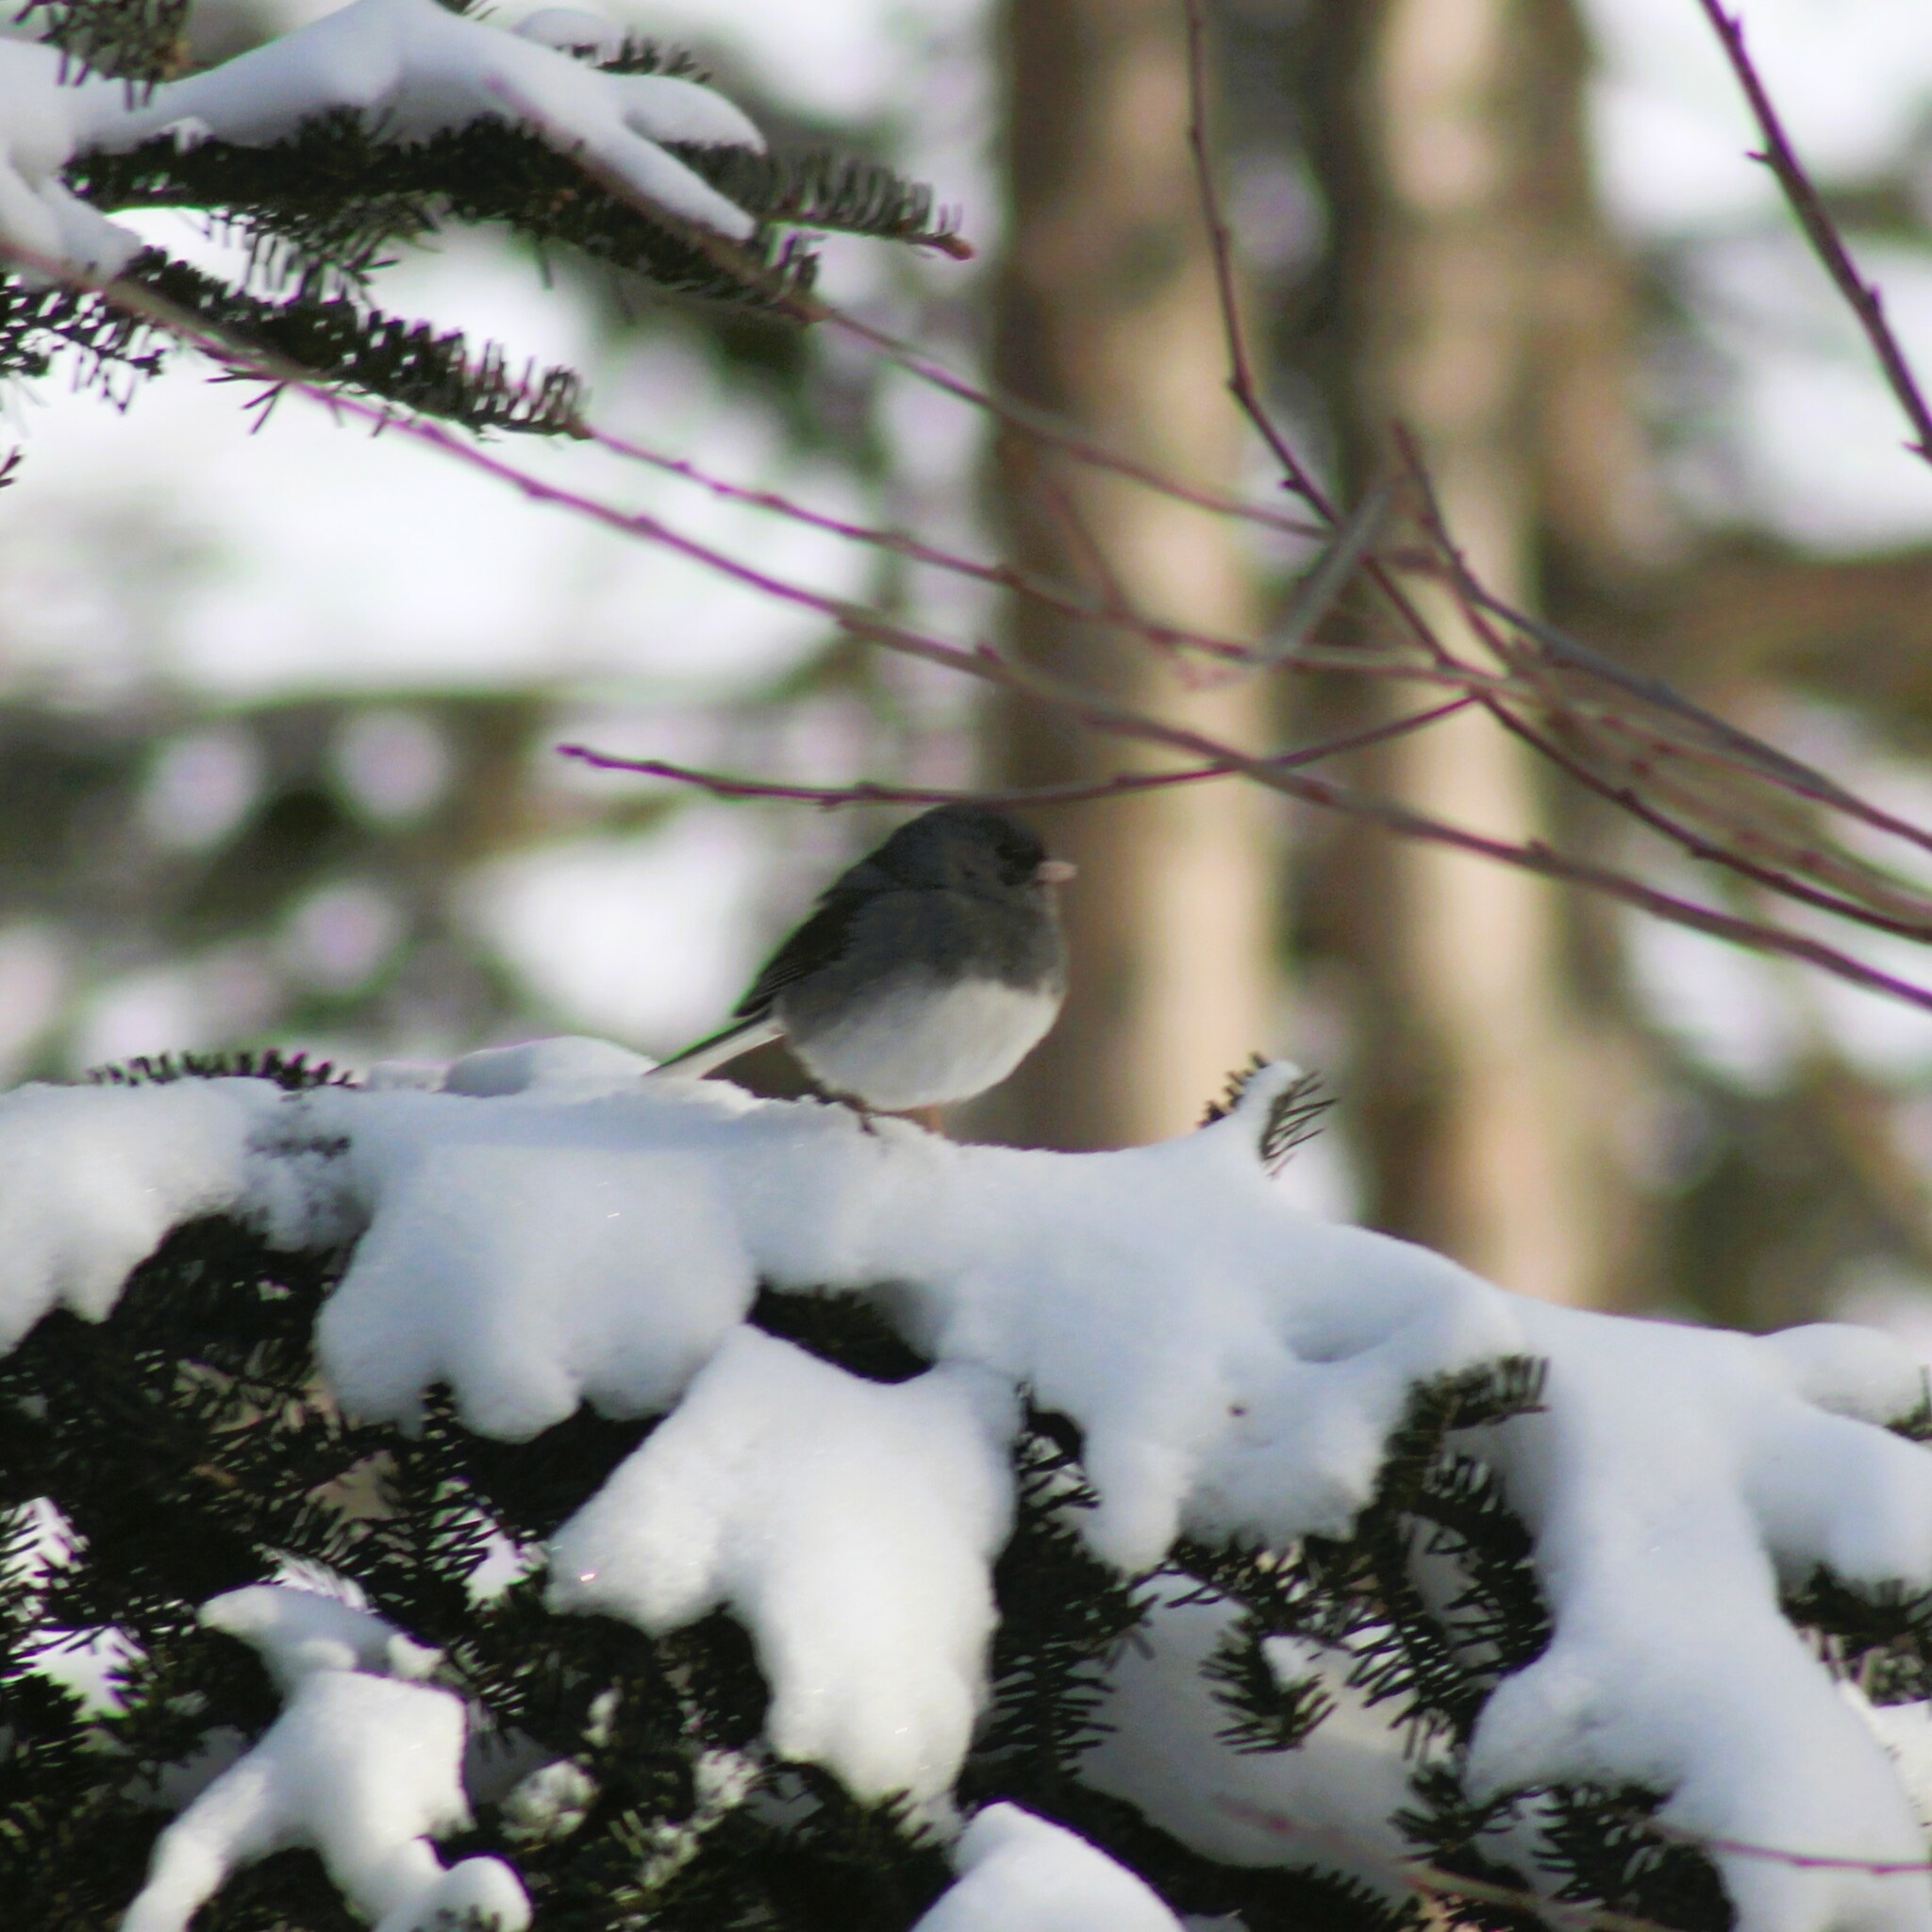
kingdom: Animalia
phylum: Chordata
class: Aves
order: Passeriformes
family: Passerellidae
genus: Junco
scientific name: Junco hyemalis
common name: Dark-eyed junco
